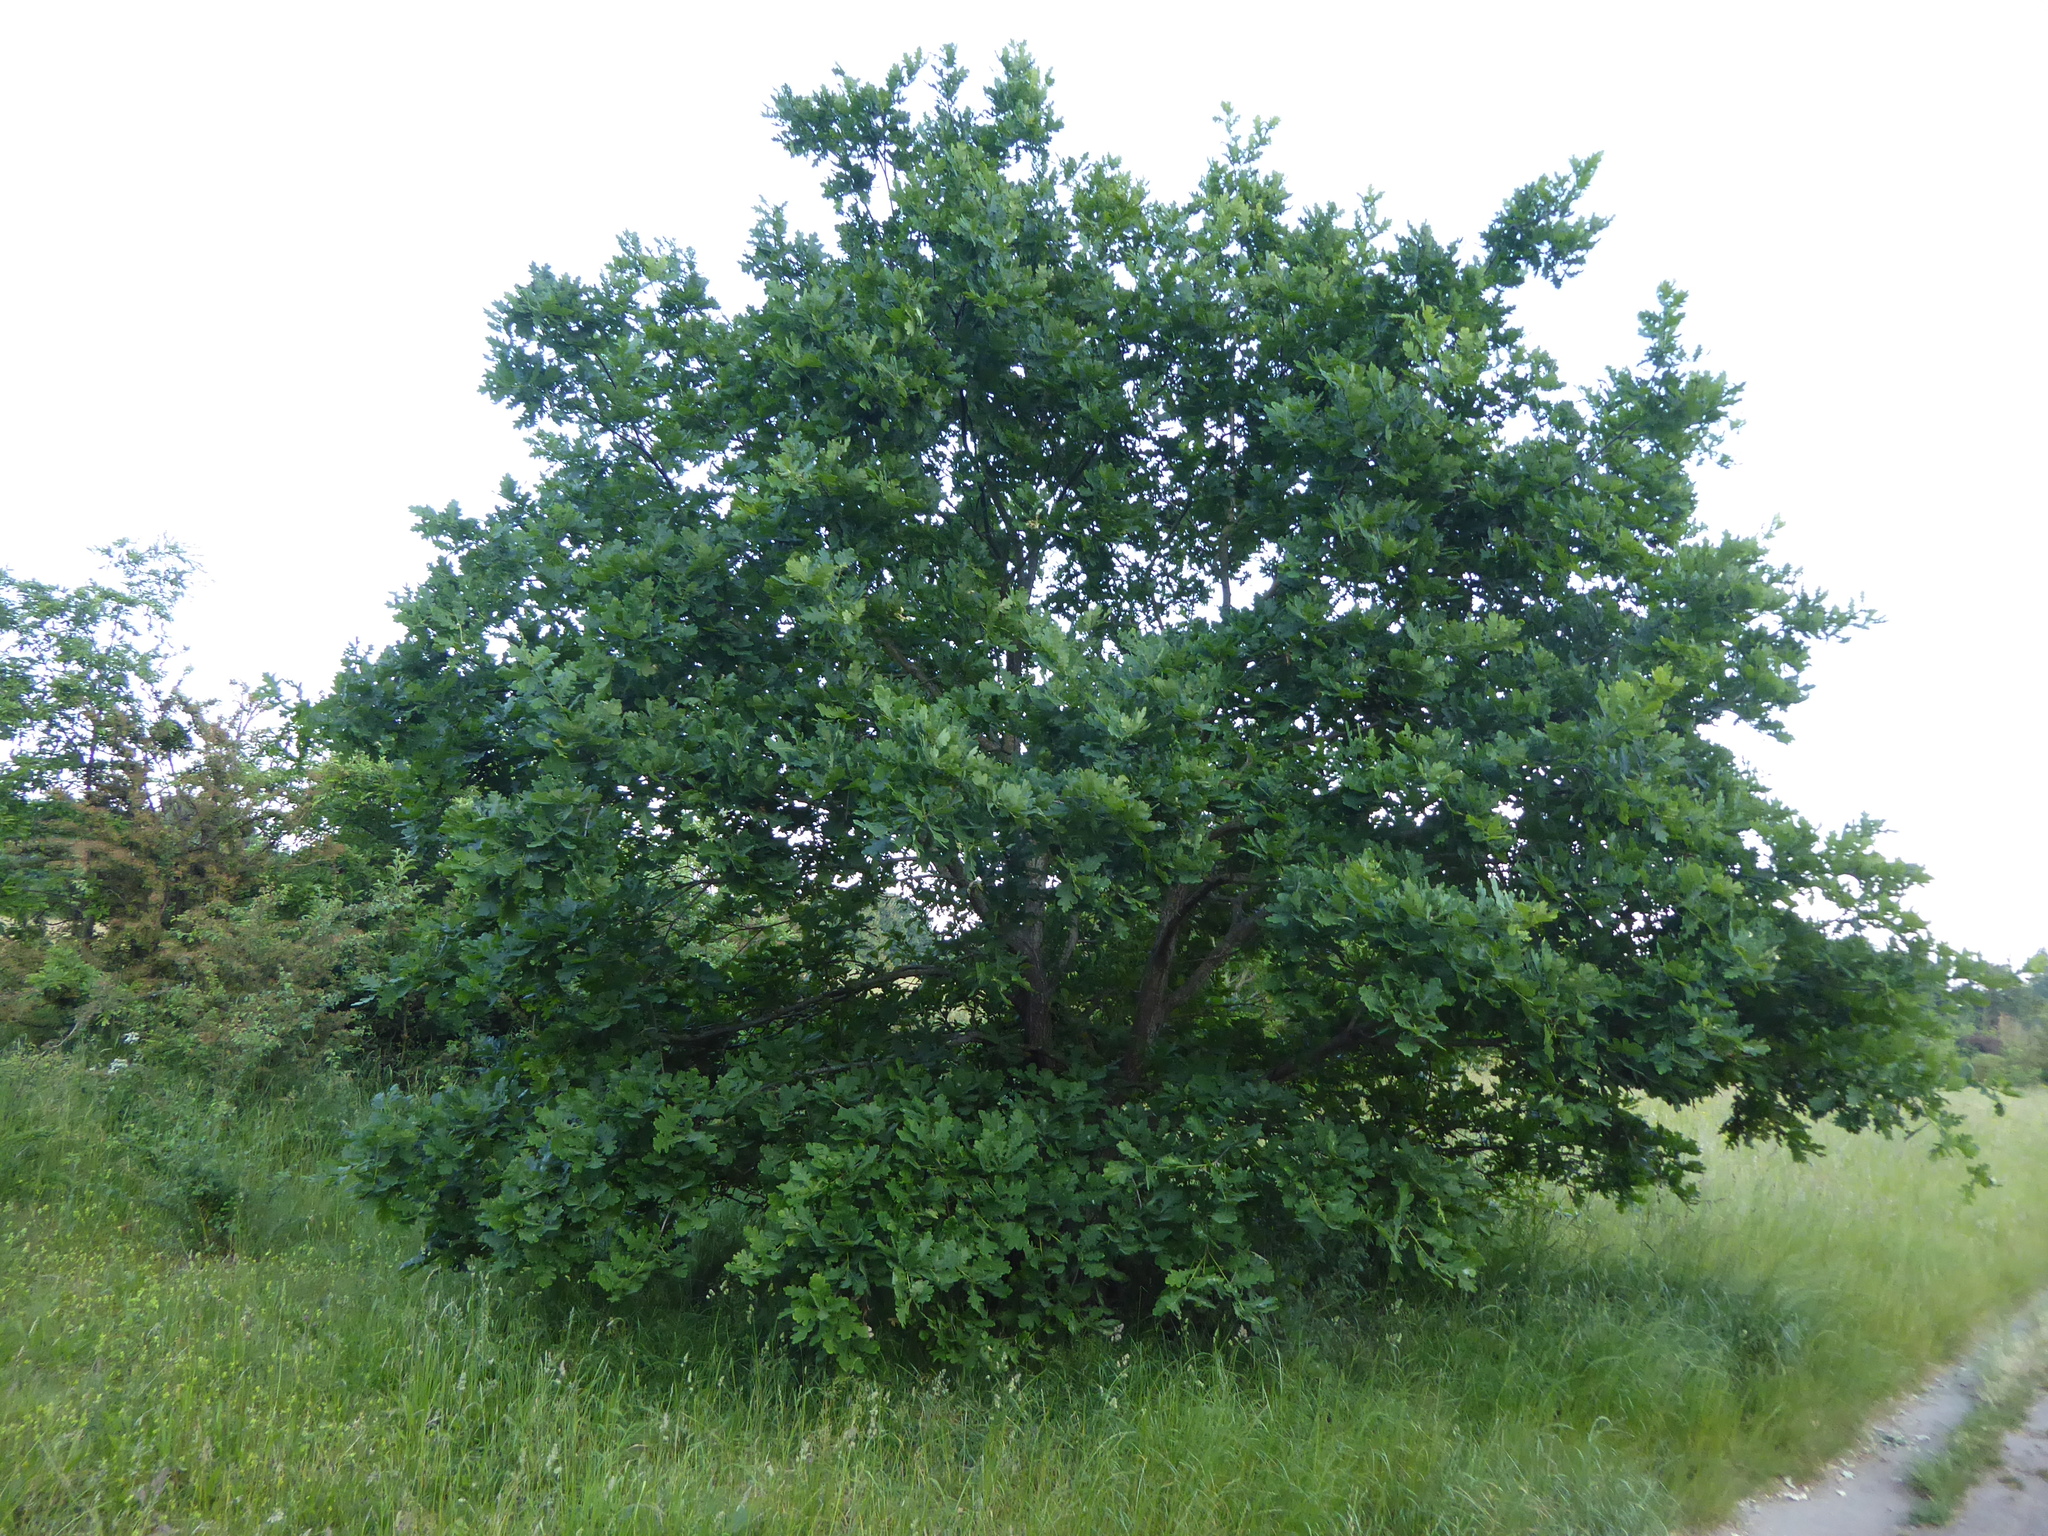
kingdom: Plantae
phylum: Tracheophyta
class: Magnoliopsida
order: Fagales
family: Fagaceae
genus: Quercus
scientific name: Quercus robur
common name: Pedunculate oak
